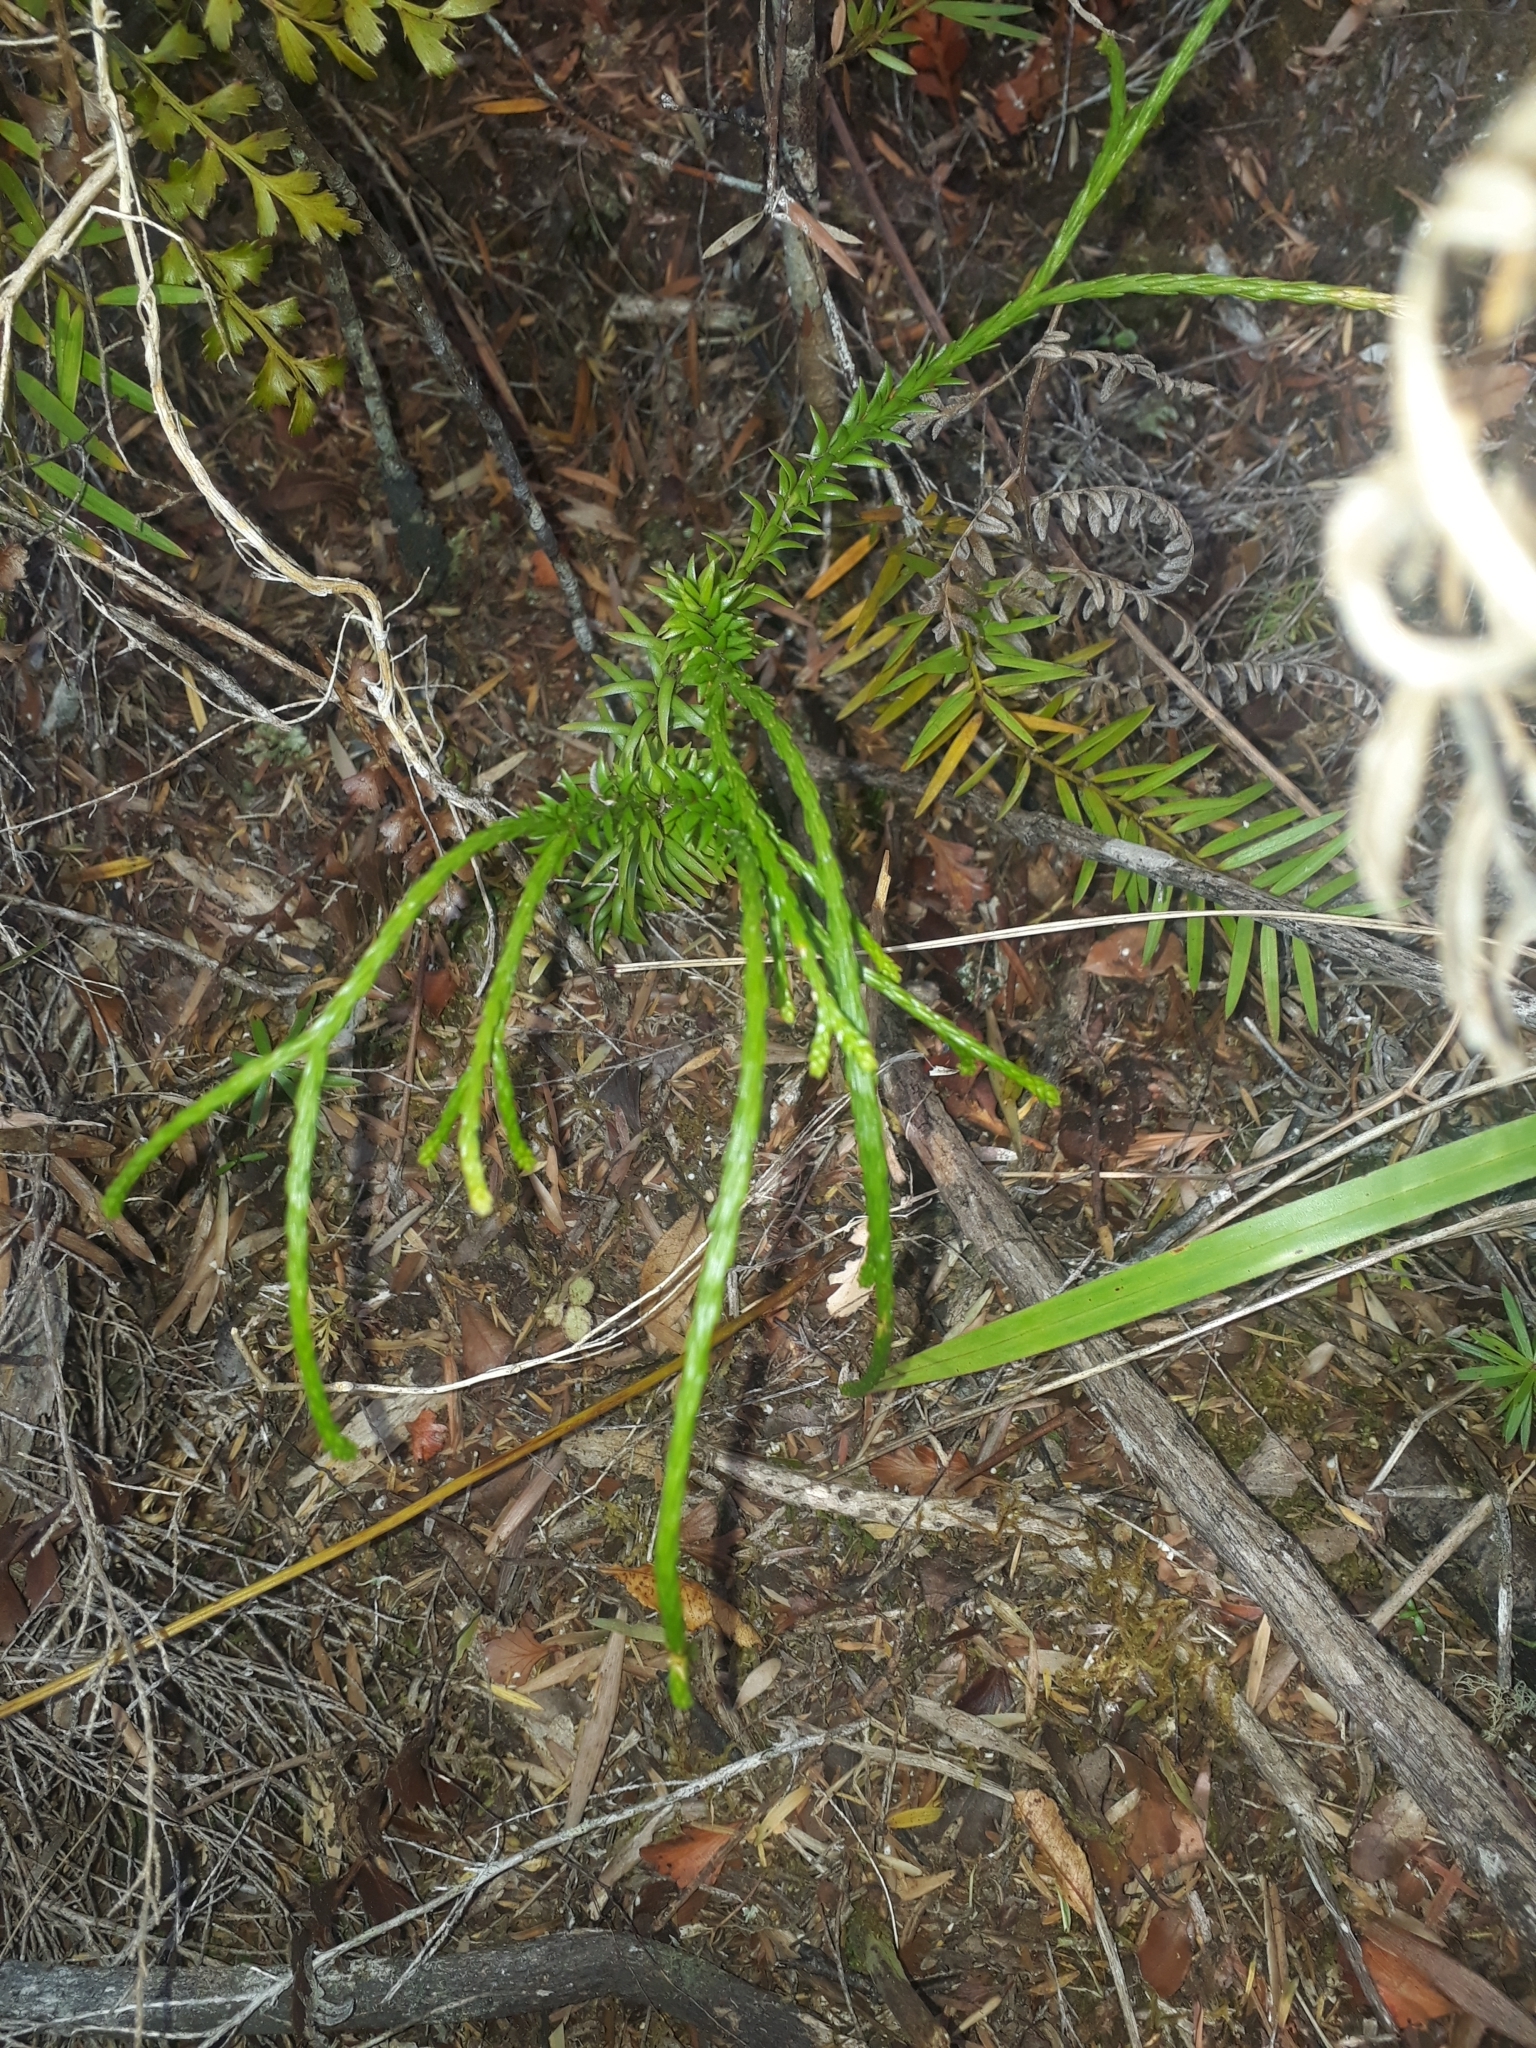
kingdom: Plantae
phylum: Tracheophyta
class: Lycopodiopsida
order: Lycopodiales
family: Lycopodiaceae
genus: Phlegmariurus
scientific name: Phlegmariurus billardierei
